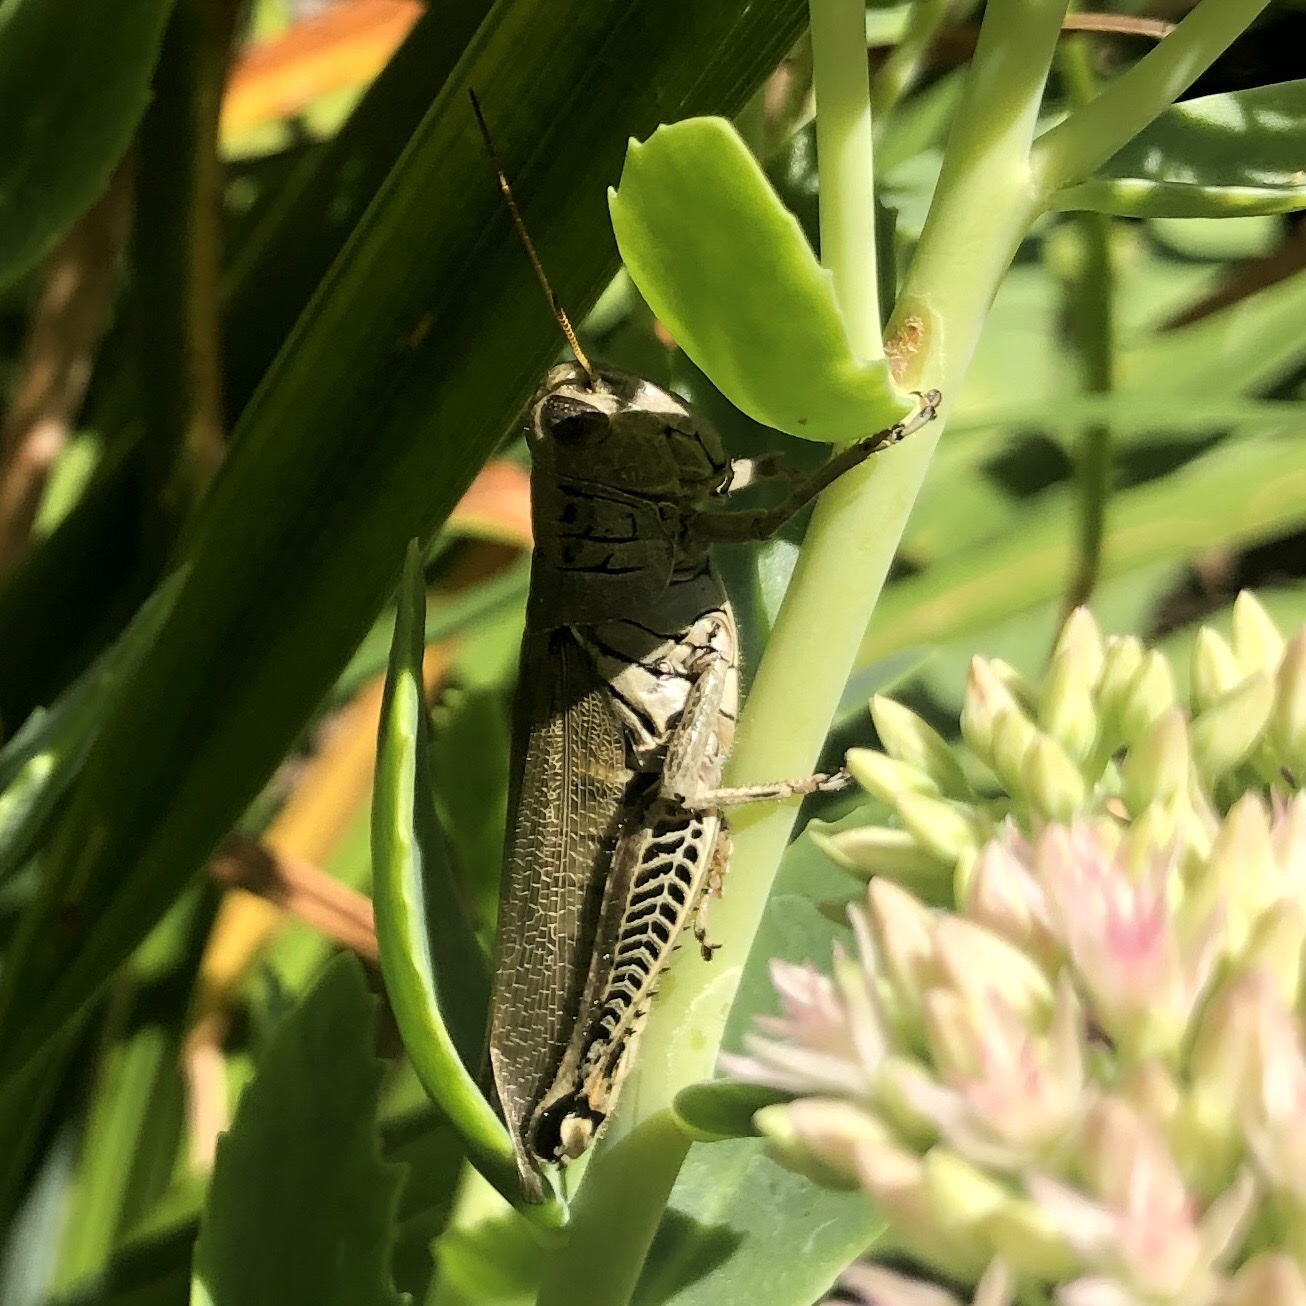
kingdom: Animalia
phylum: Arthropoda
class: Insecta
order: Orthoptera
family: Acrididae
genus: Melanoplus
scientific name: Melanoplus differentialis
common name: Differential grasshopper
